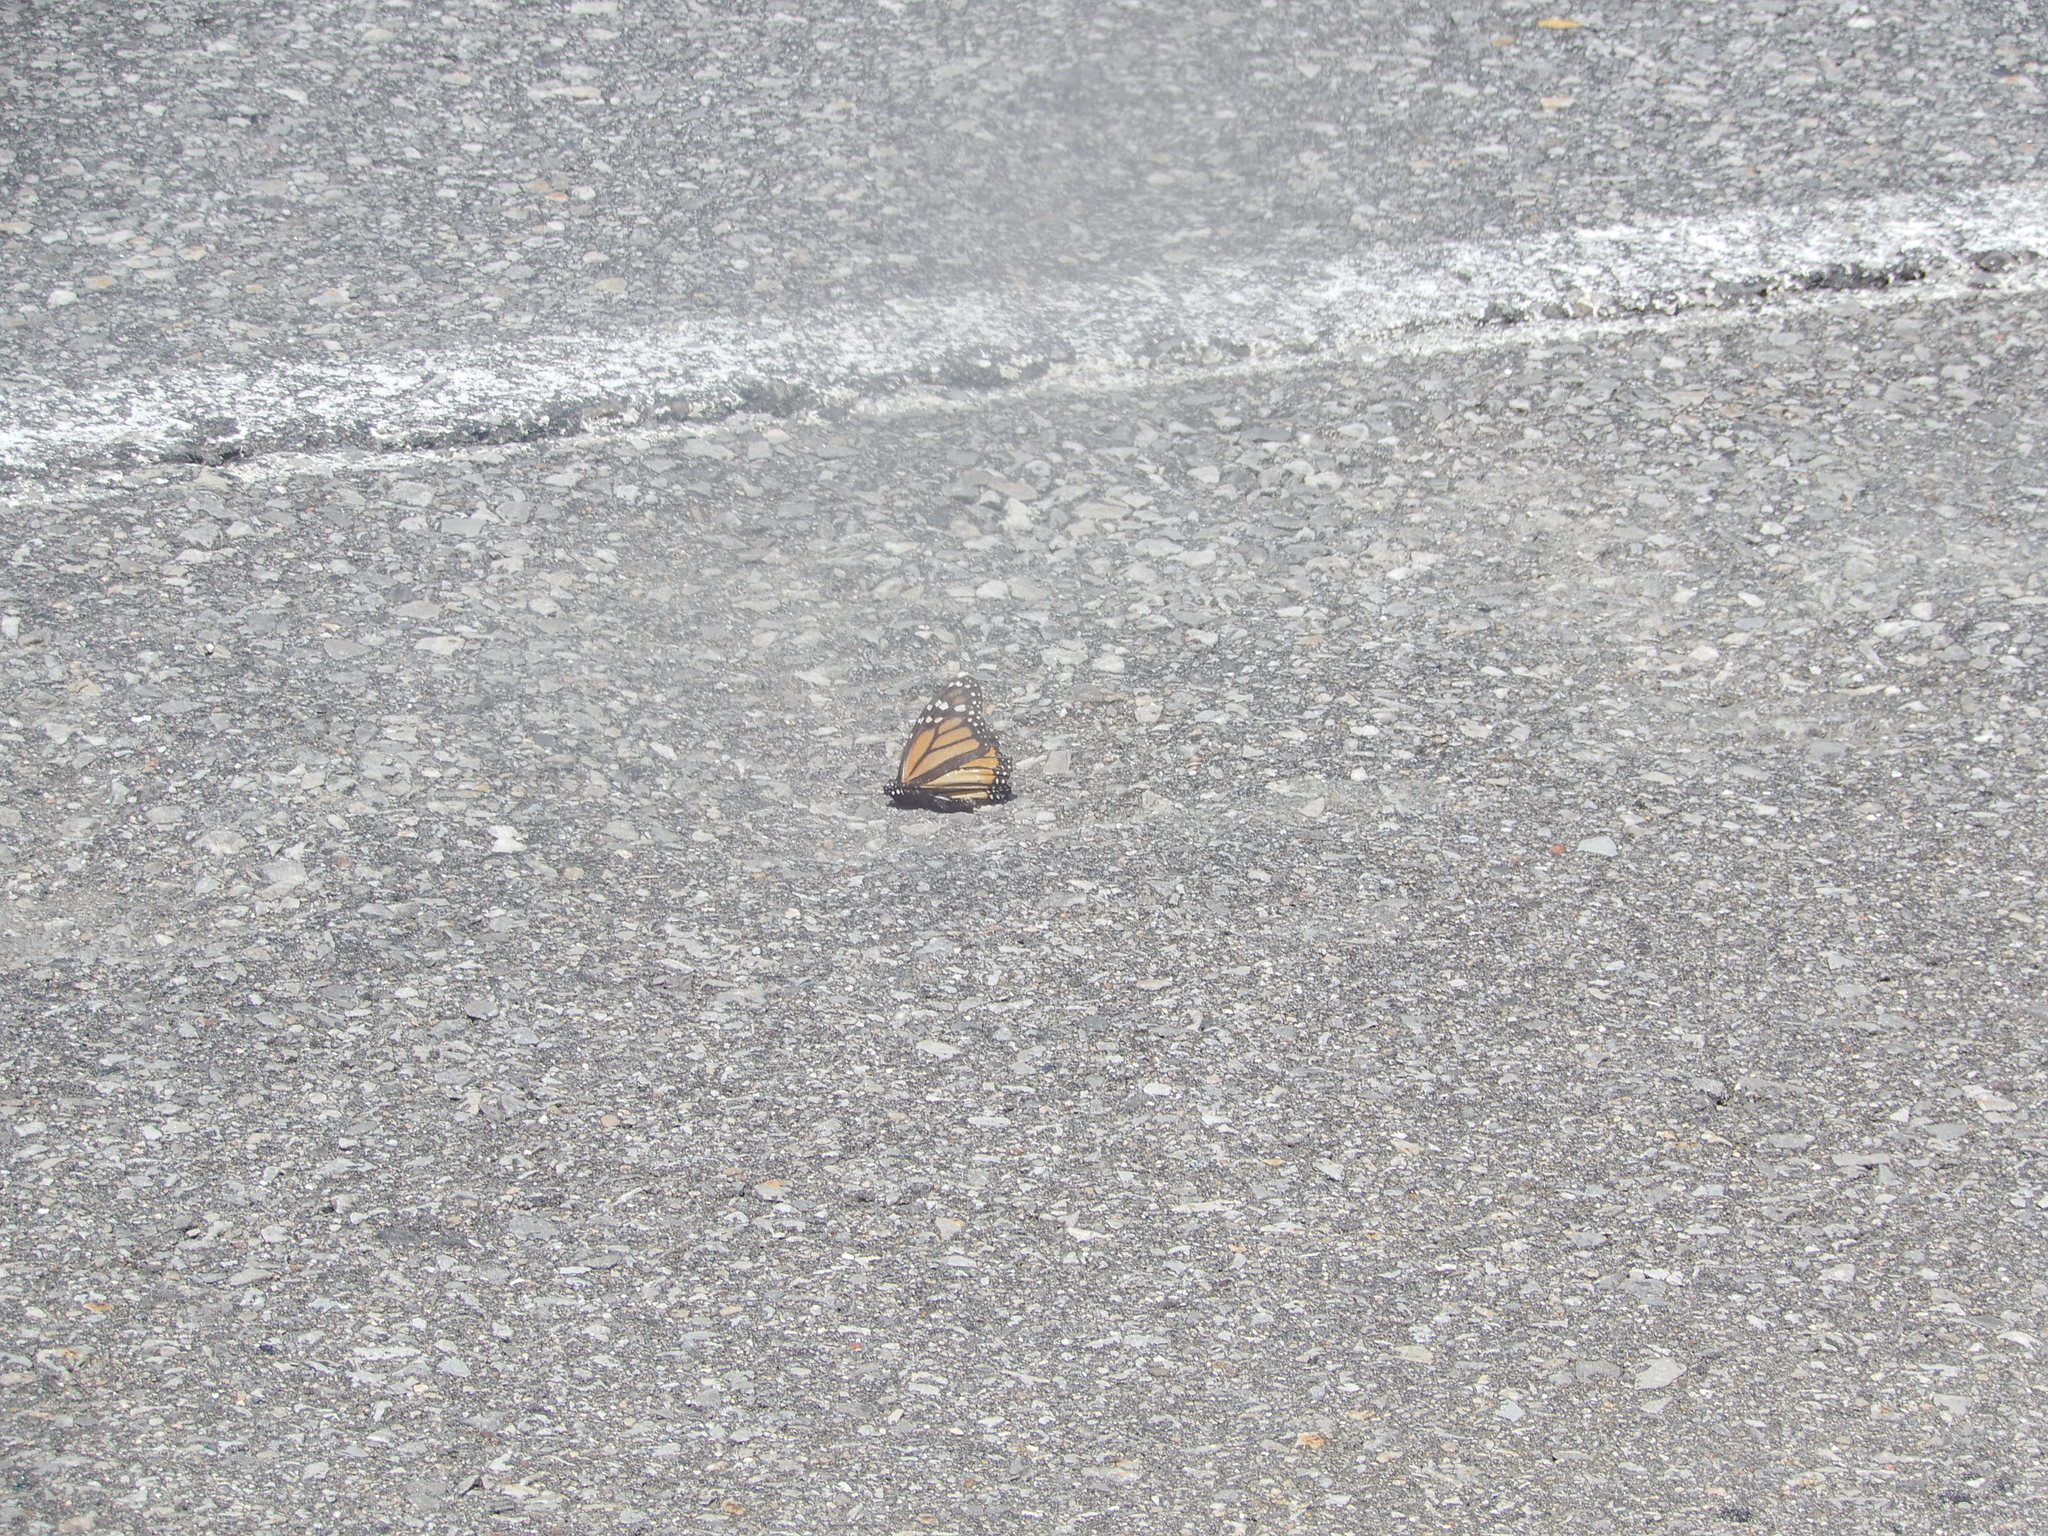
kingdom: Animalia
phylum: Arthropoda
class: Insecta
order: Lepidoptera
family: Nymphalidae
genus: Danaus
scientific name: Danaus plexippus
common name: Monarch
